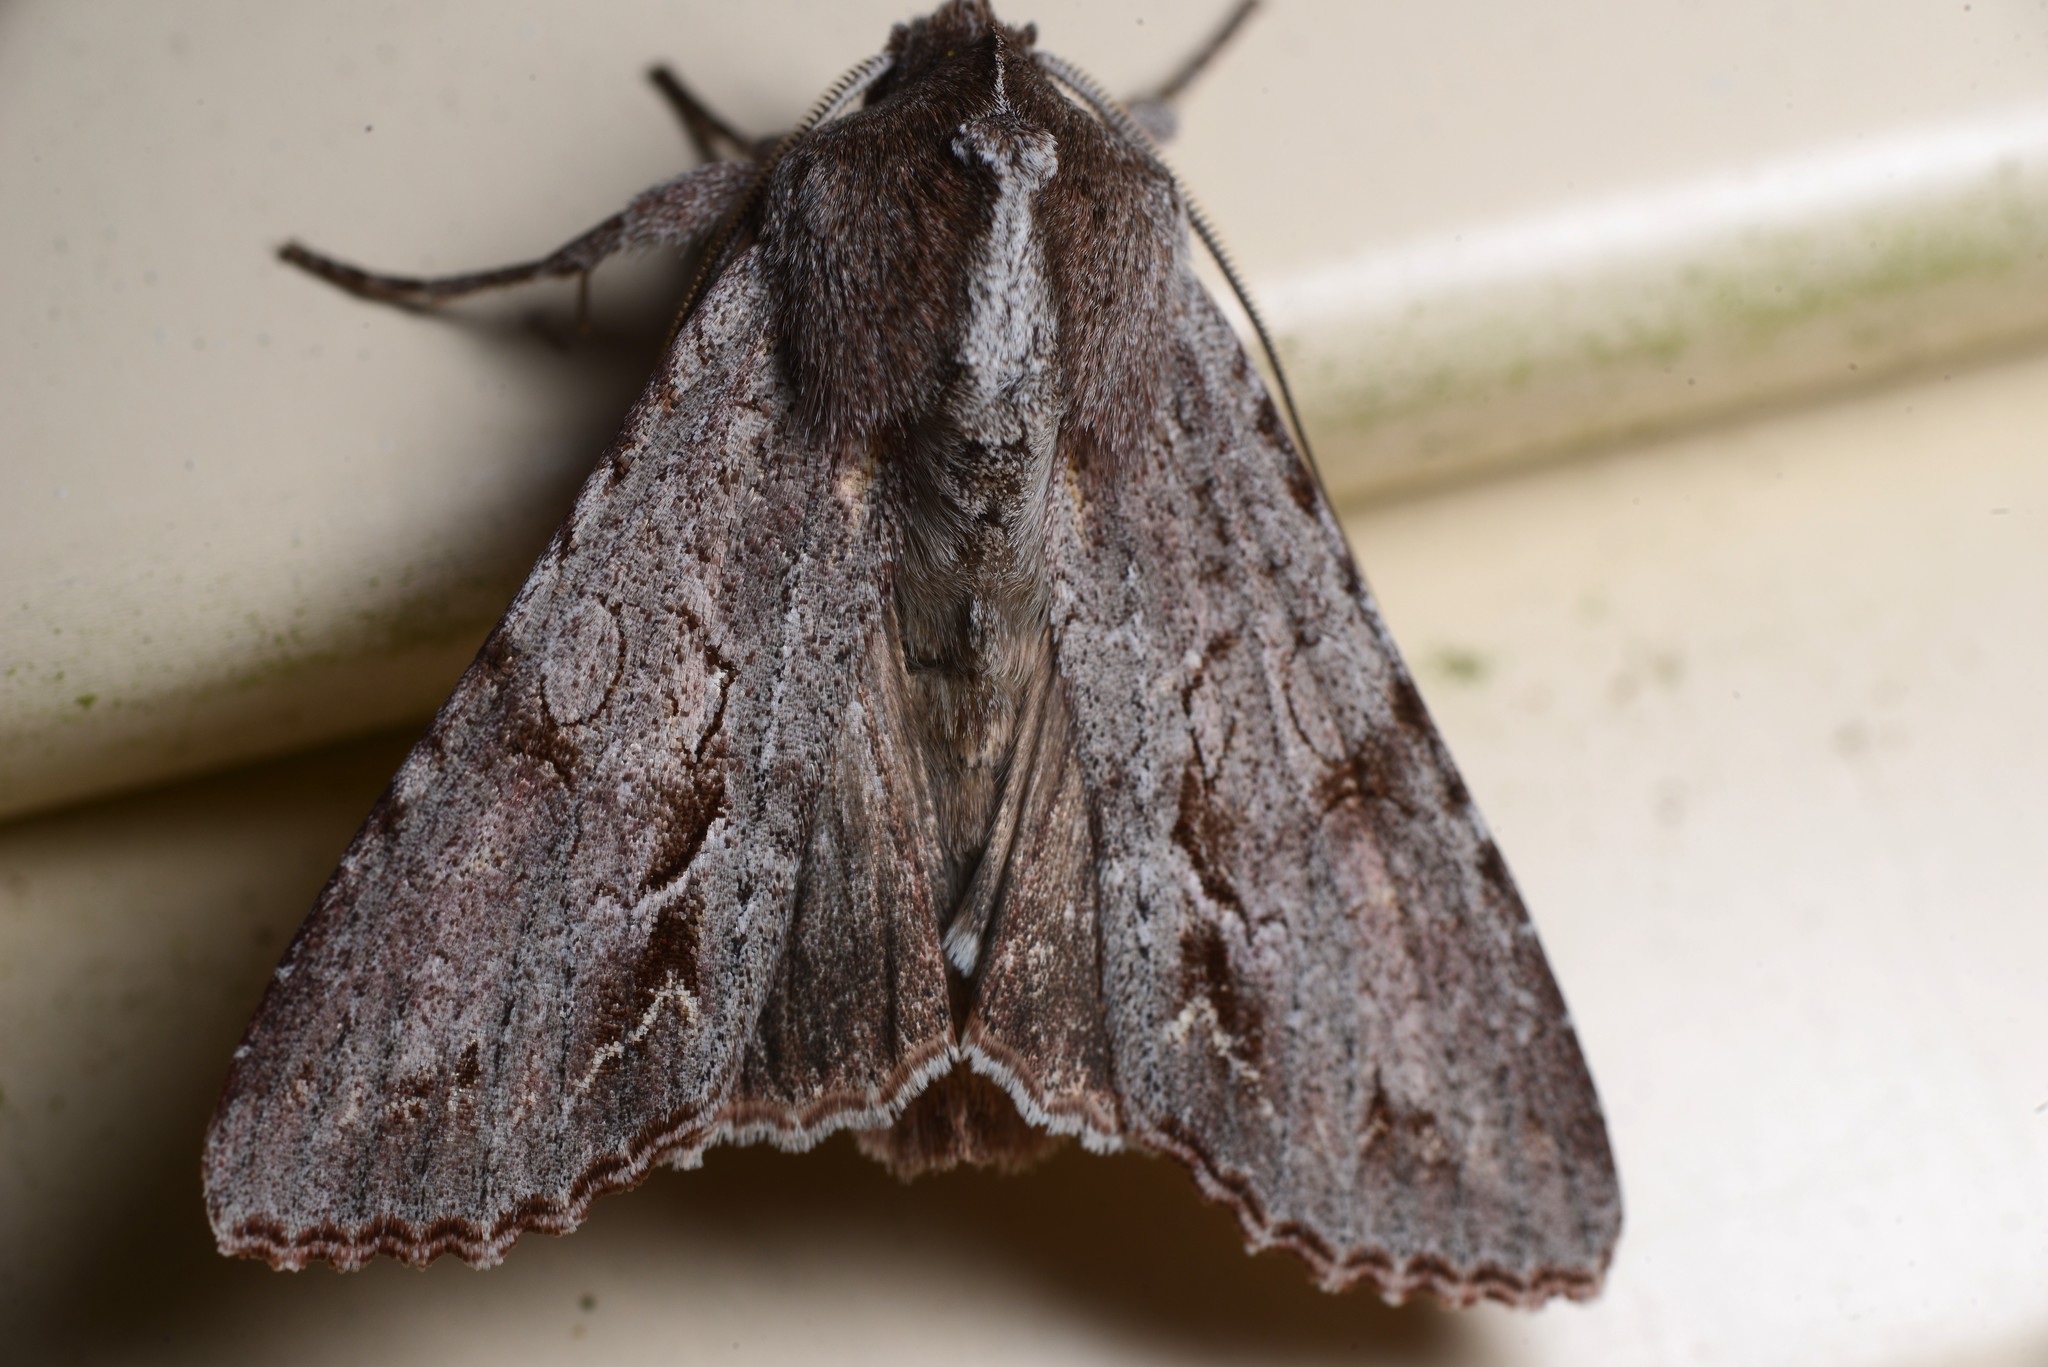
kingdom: Animalia
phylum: Arthropoda
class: Insecta
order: Lepidoptera
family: Noctuidae
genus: Ichneutica
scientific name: Ichneutica
